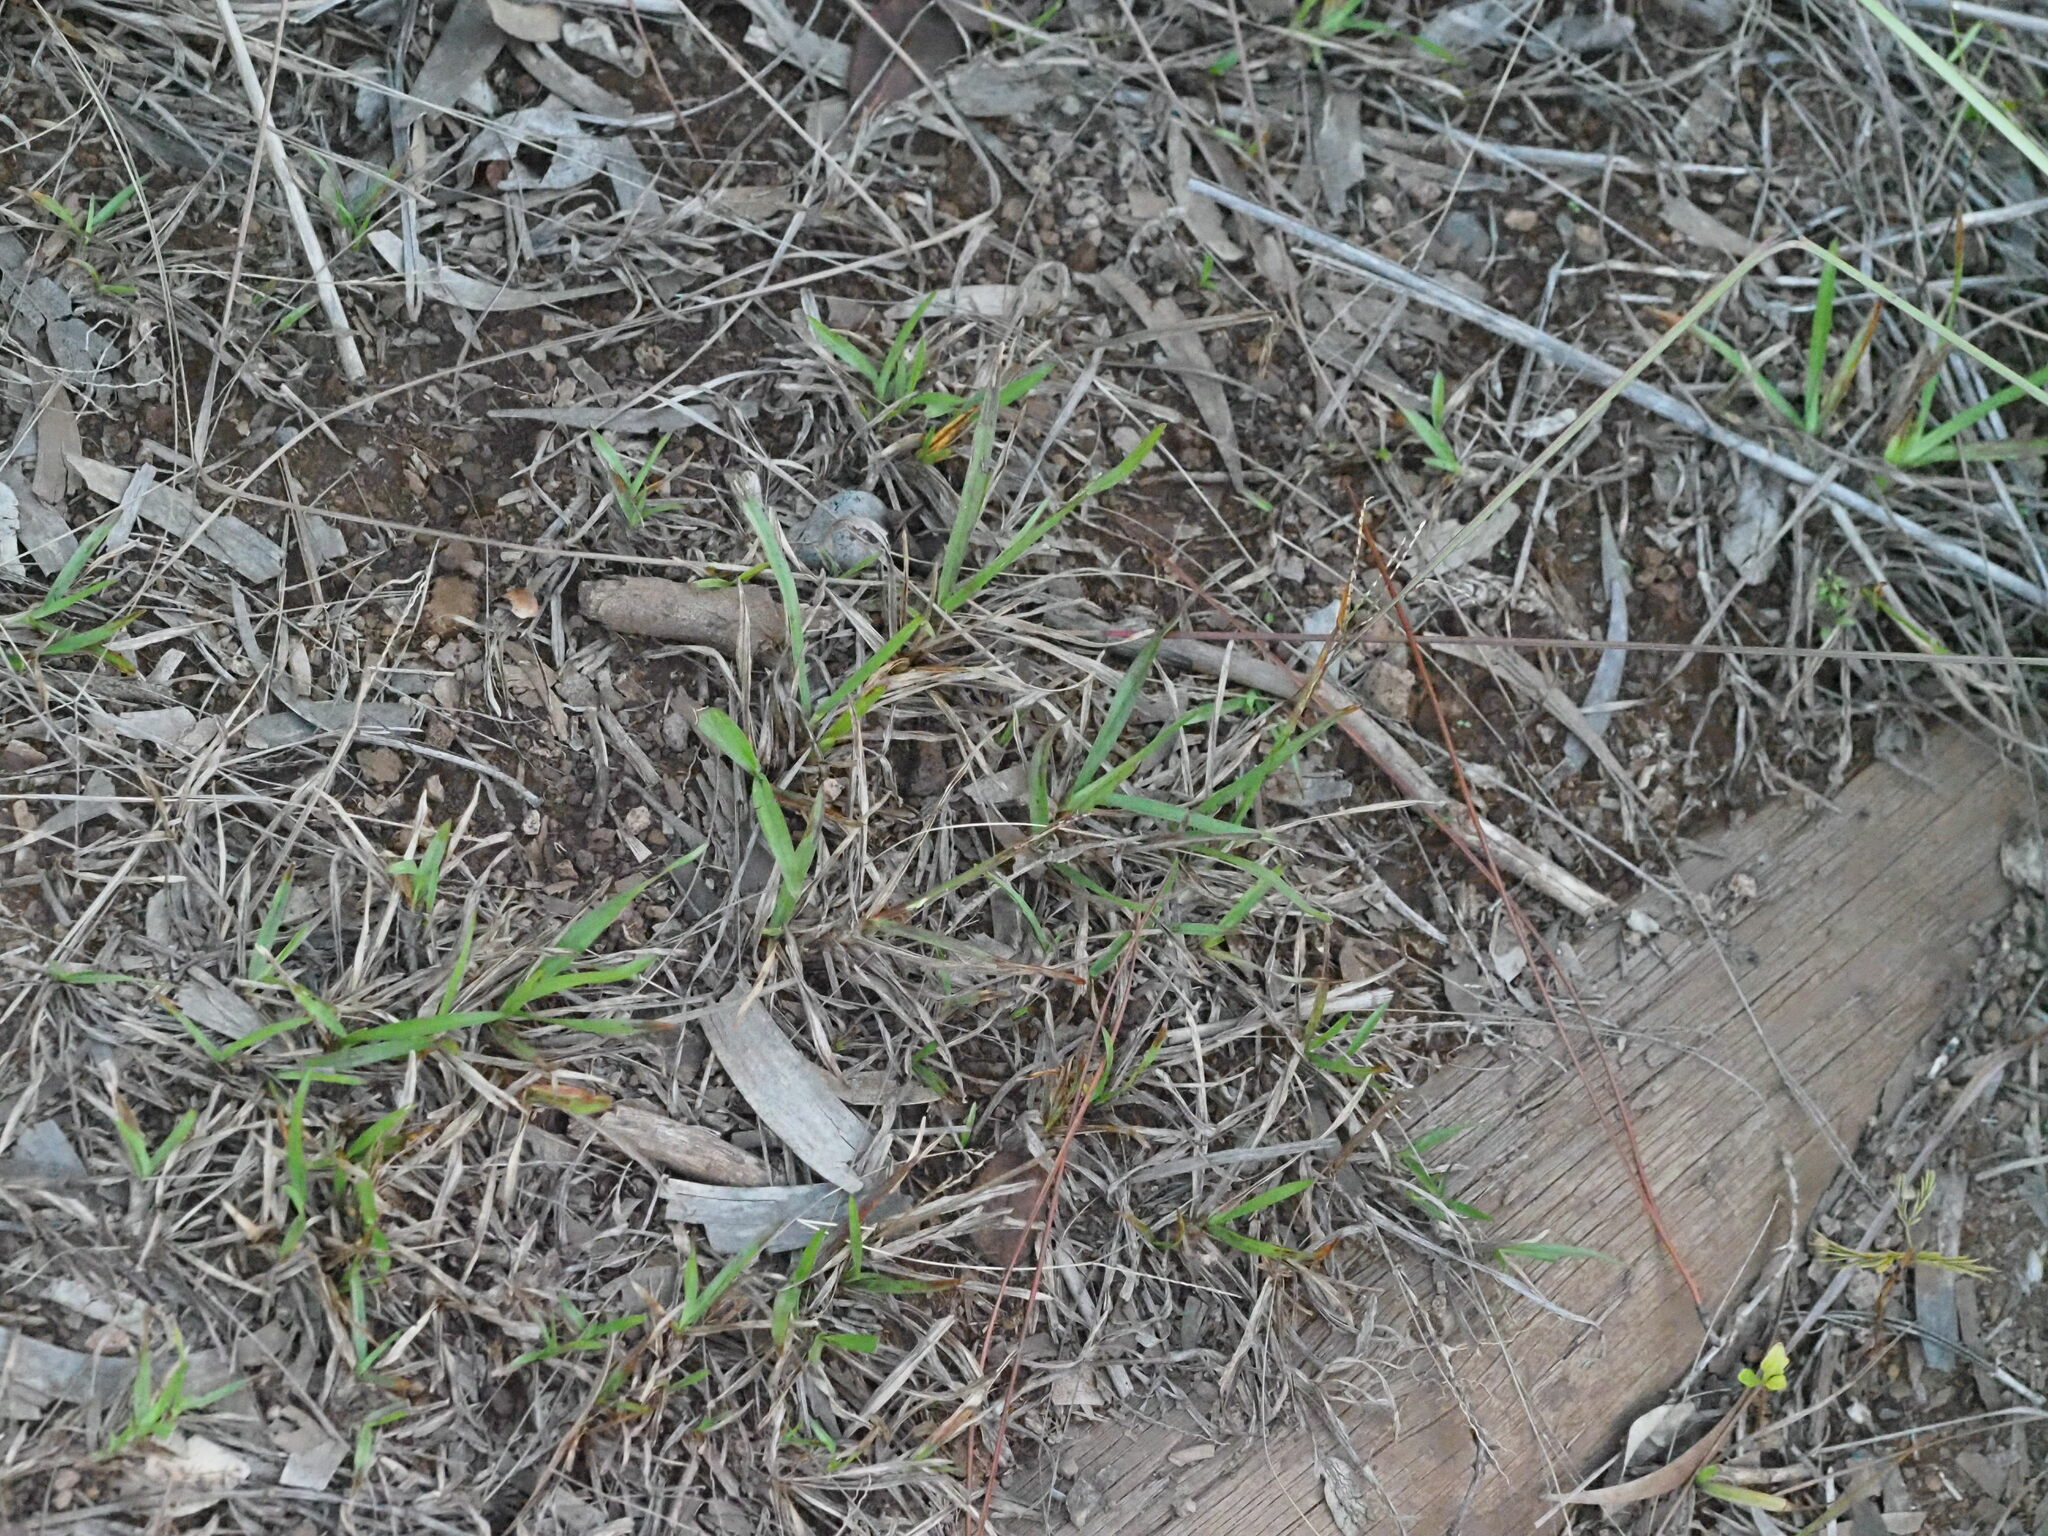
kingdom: Plantae
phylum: Tracheophyta
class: Liliopsida
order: Poales
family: Poaceae
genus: Axonopus
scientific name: Axonopus fissifolius
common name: Common carpetgrass
